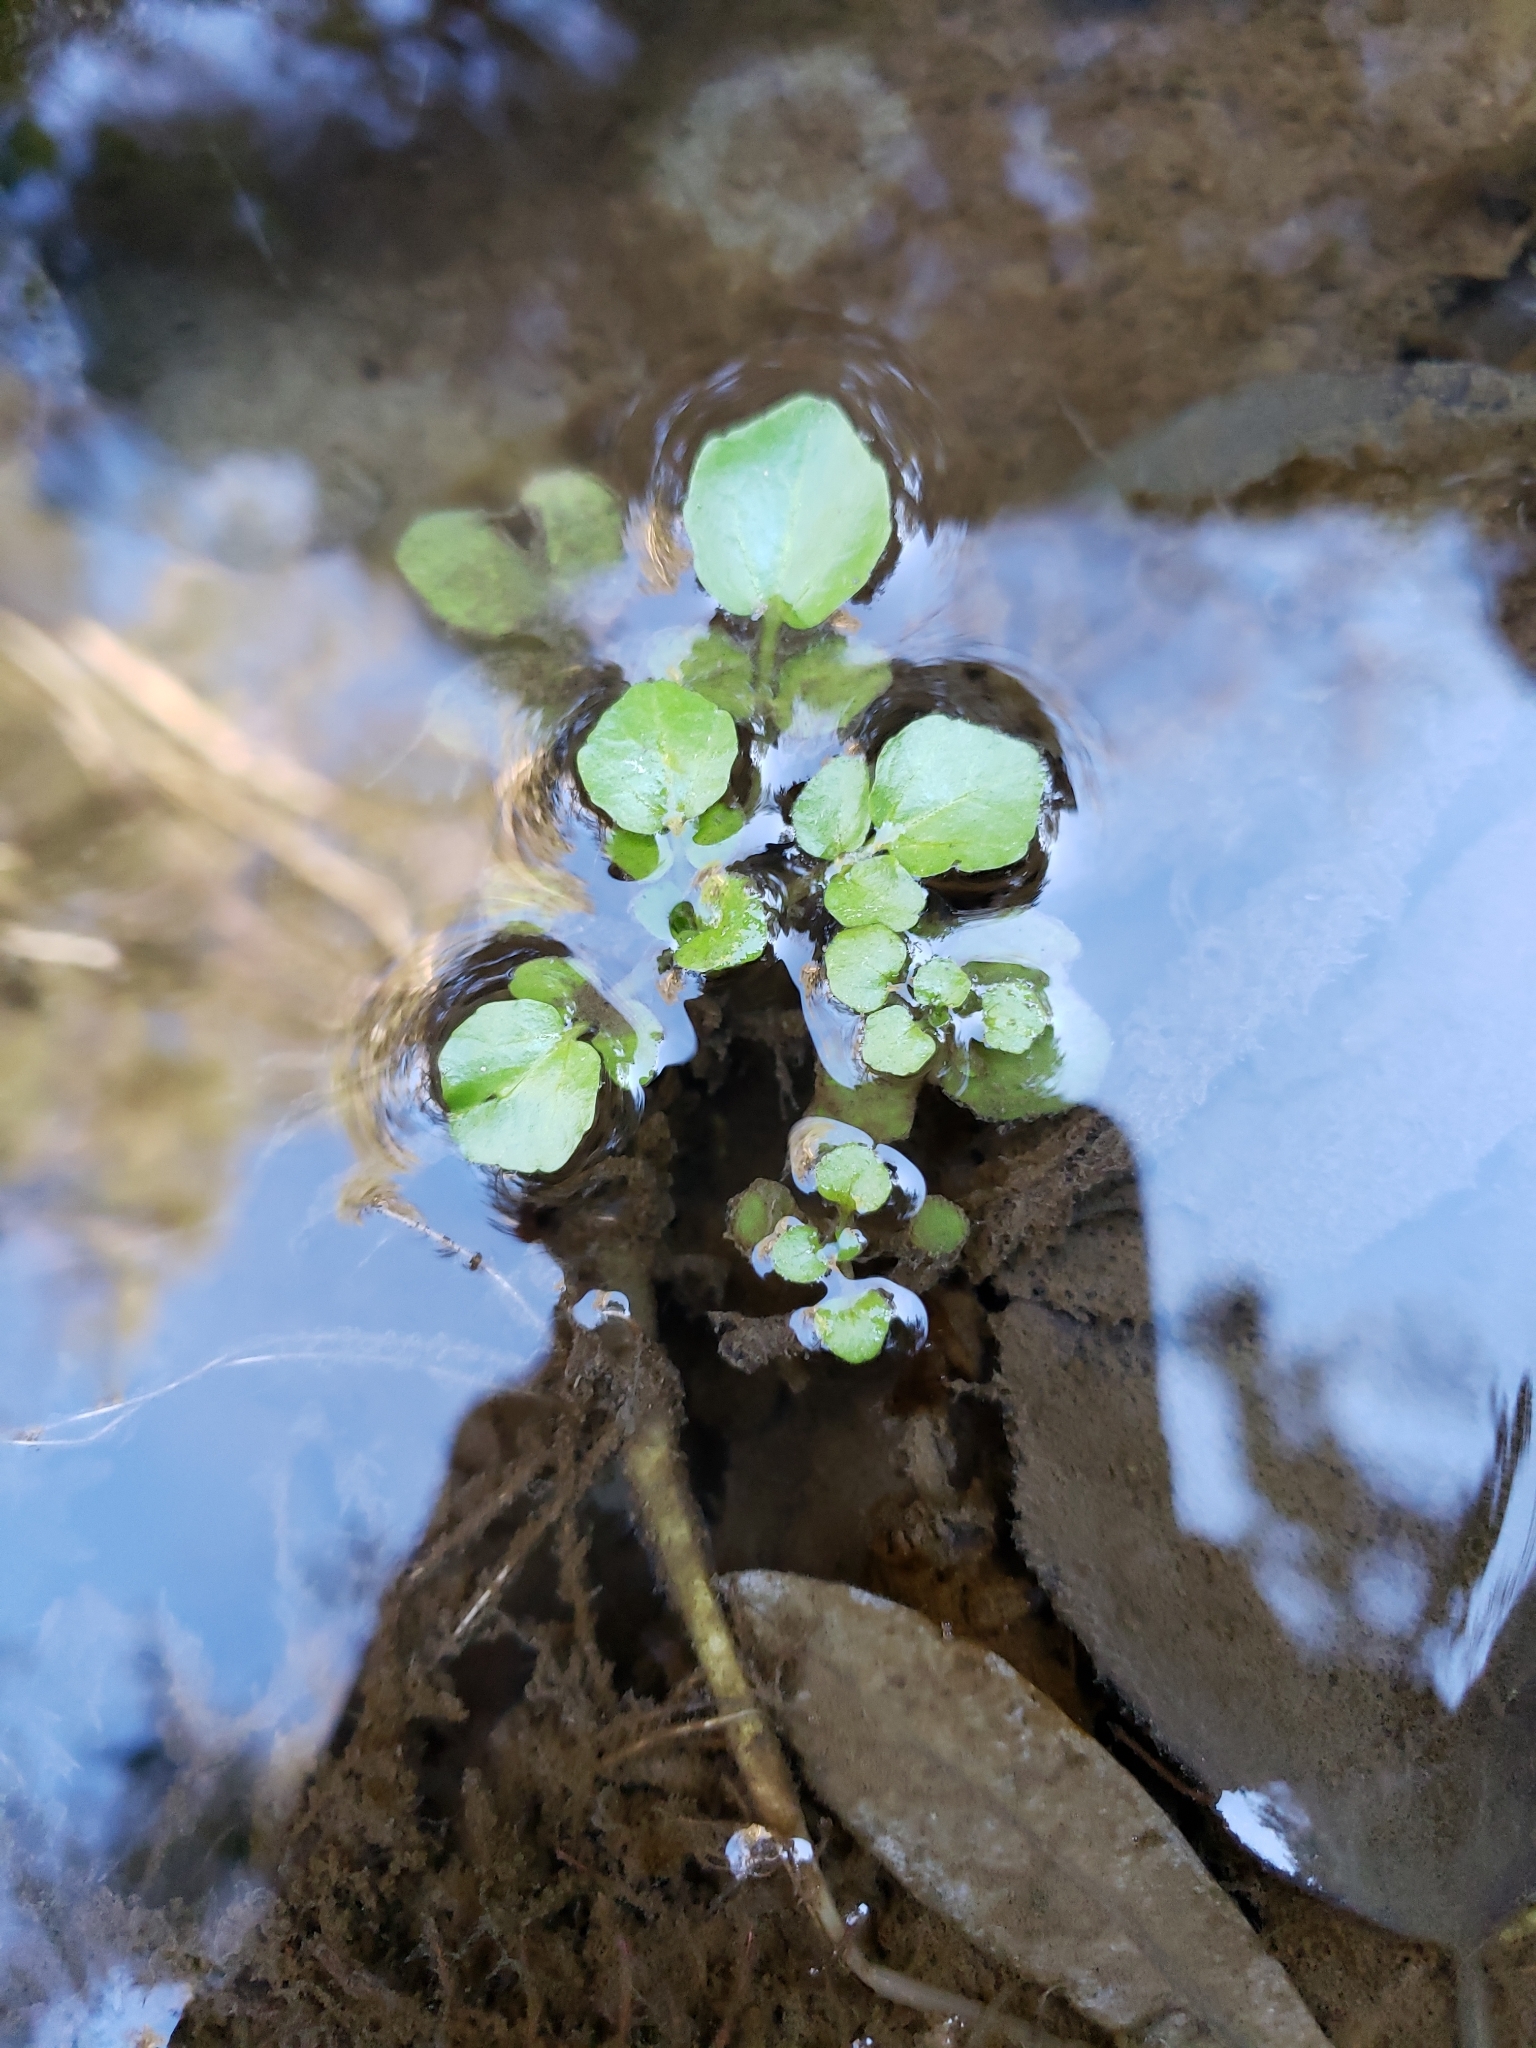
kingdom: Plantae
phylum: Tracheophyta
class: Magnoliopsida
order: Brassicales
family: Brassicaceae
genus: Nasturtium
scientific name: Nasturtium officinale
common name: Watercress
